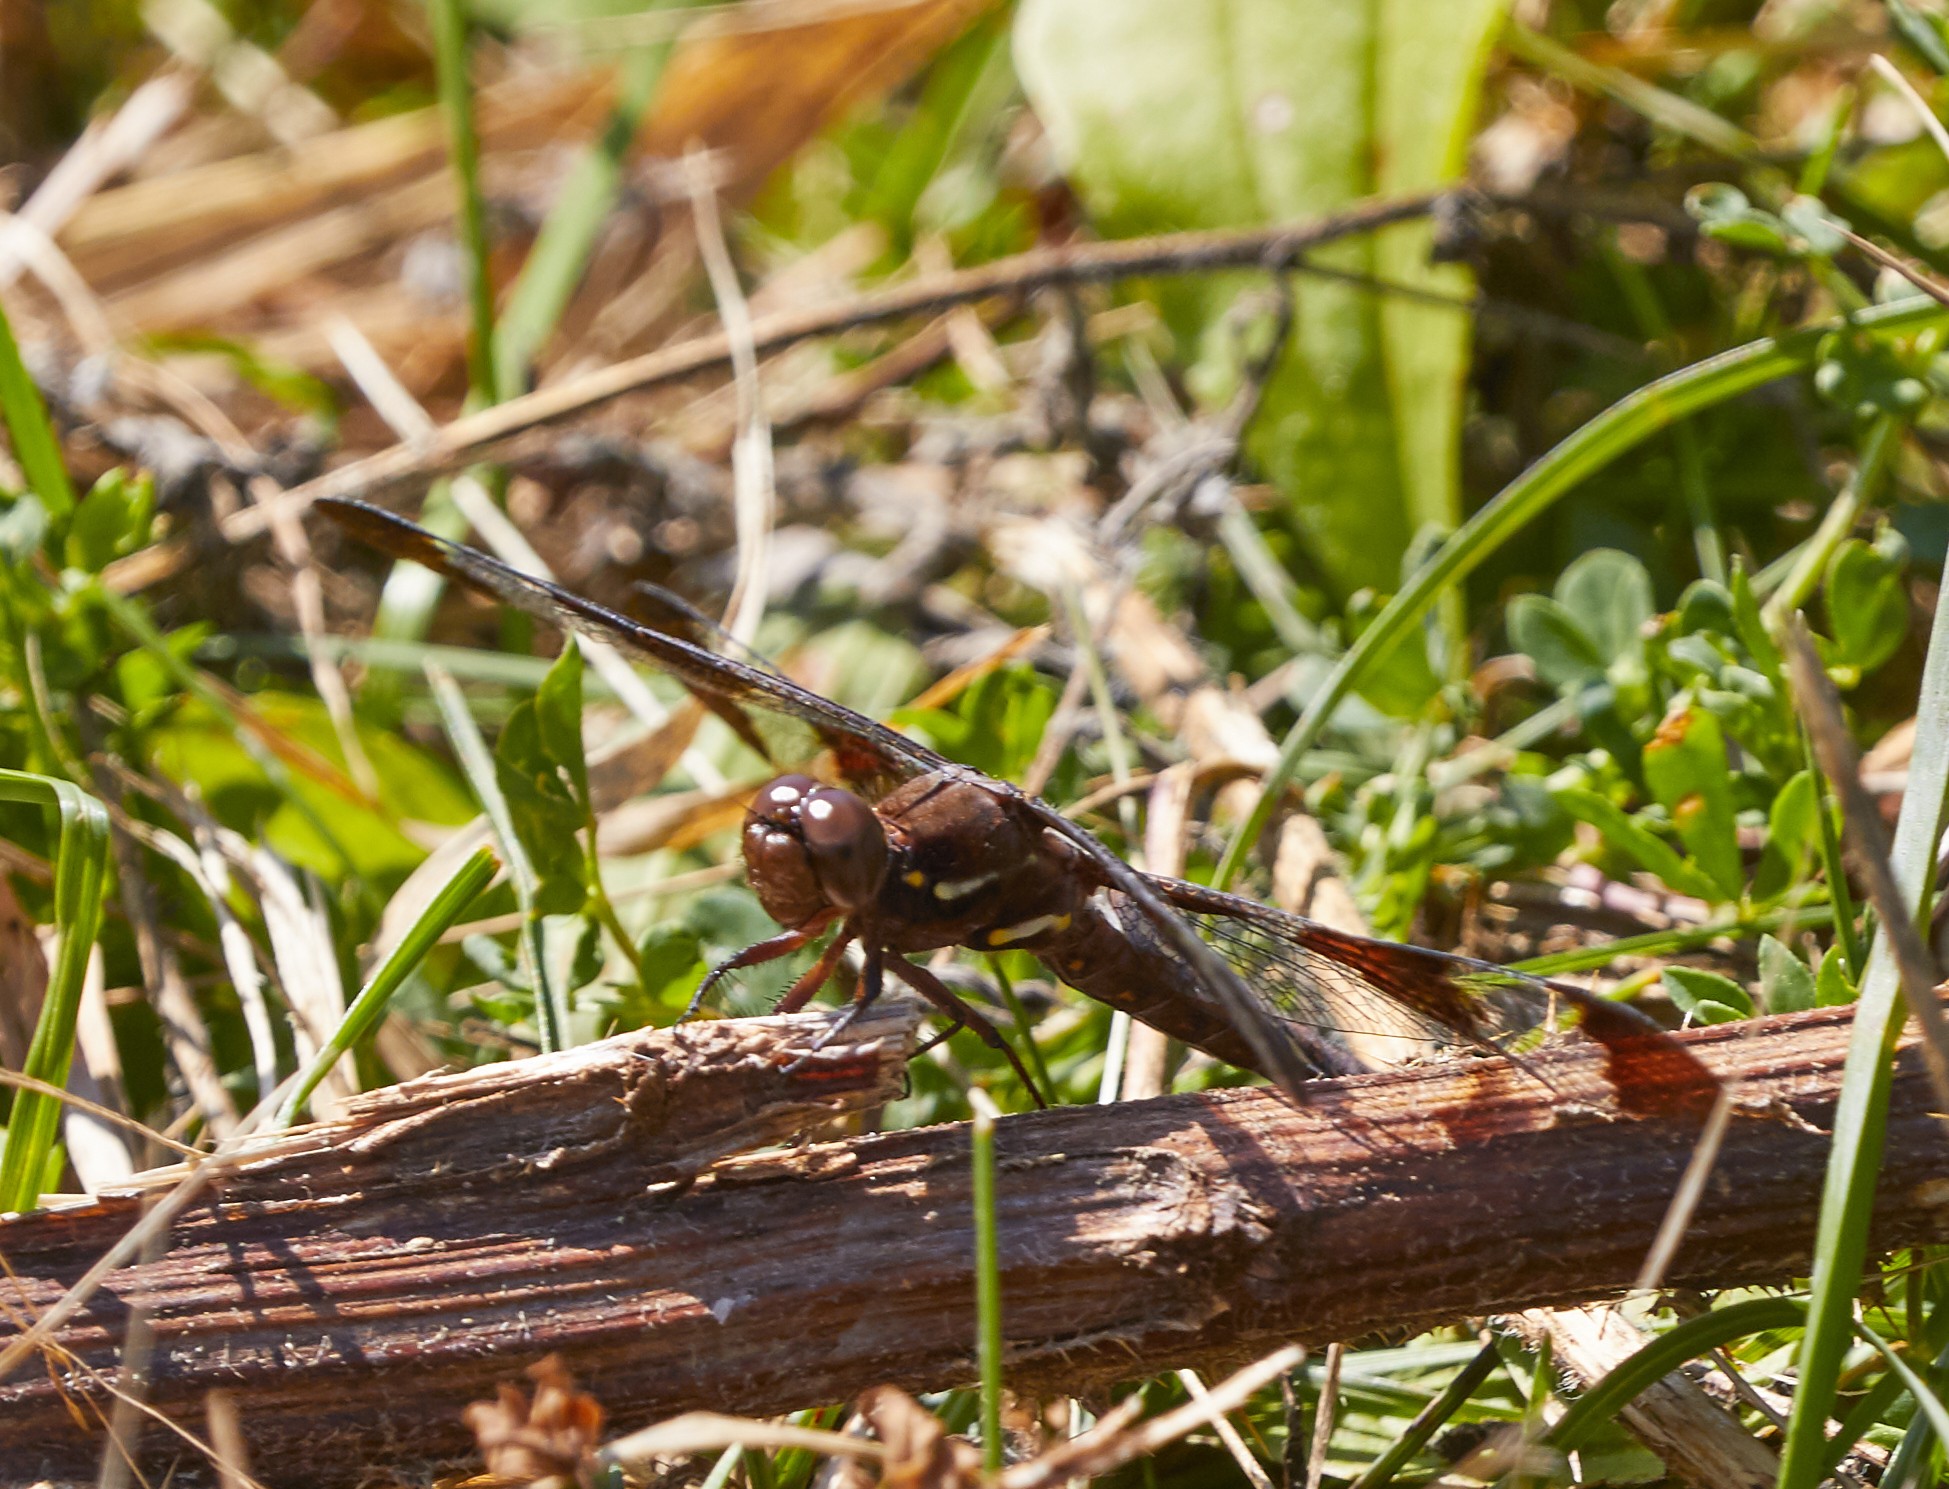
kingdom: Animalia
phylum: Arthropoda
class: Insecta
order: Odonata
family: Libellulidae
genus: Plathemis
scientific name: Plathemis lydia
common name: Common whitetail
